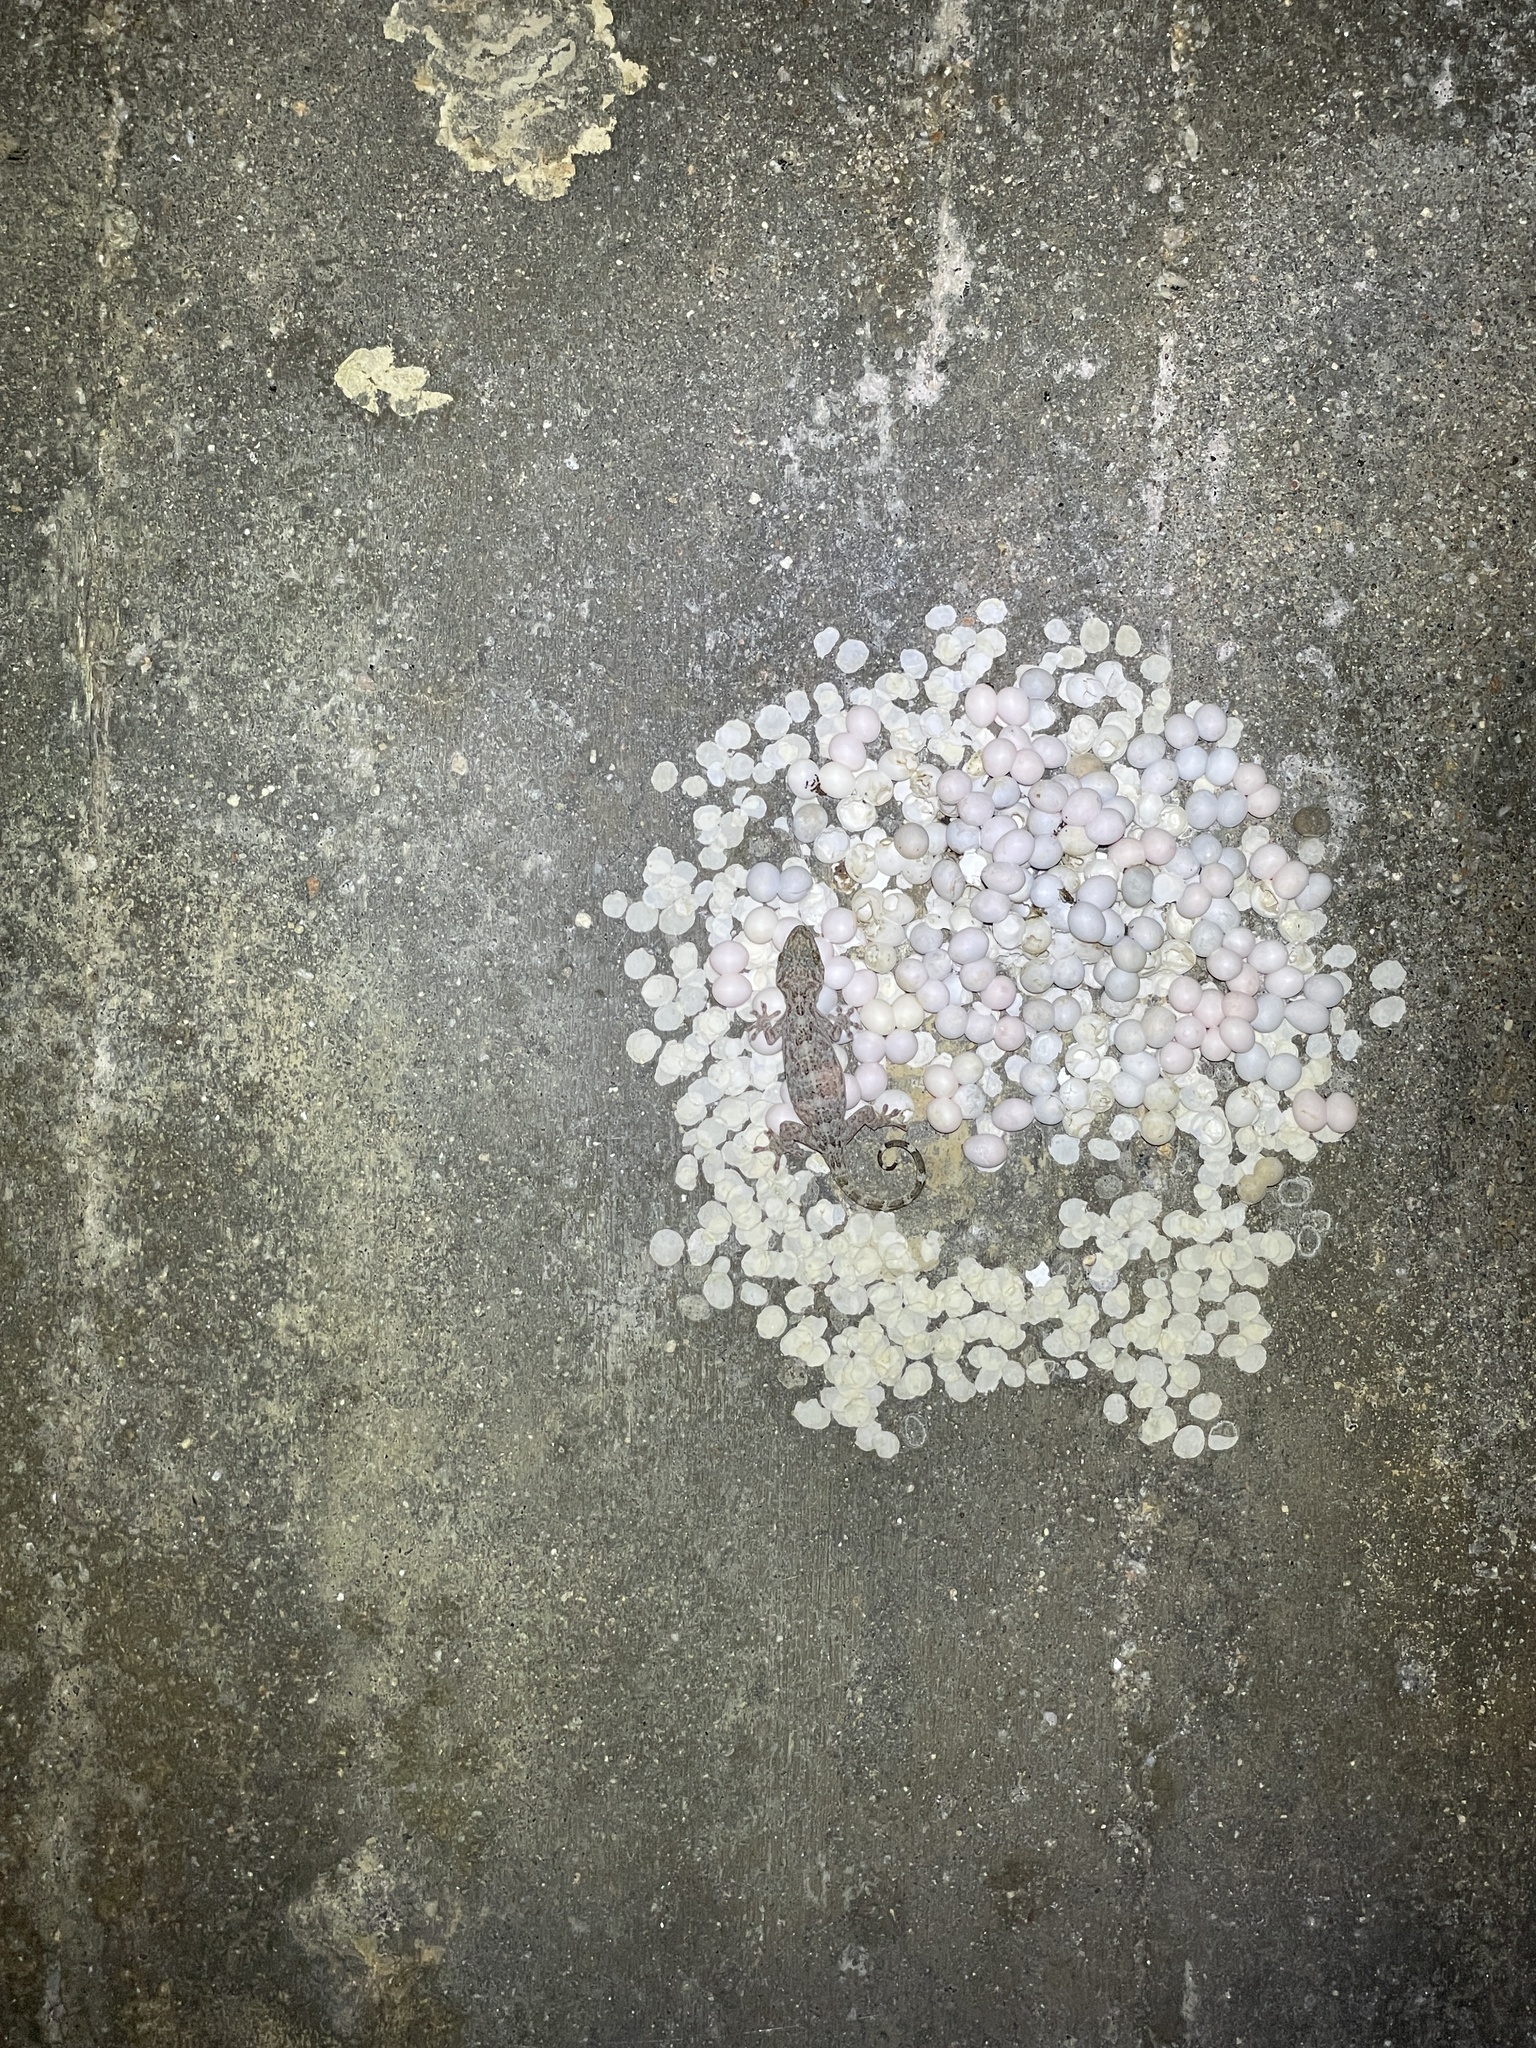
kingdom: Animalia
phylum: Chordata
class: Squamata
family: Gekkonidae
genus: Gekko
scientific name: Gekko chinensis
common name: Gray's chinese gecko
